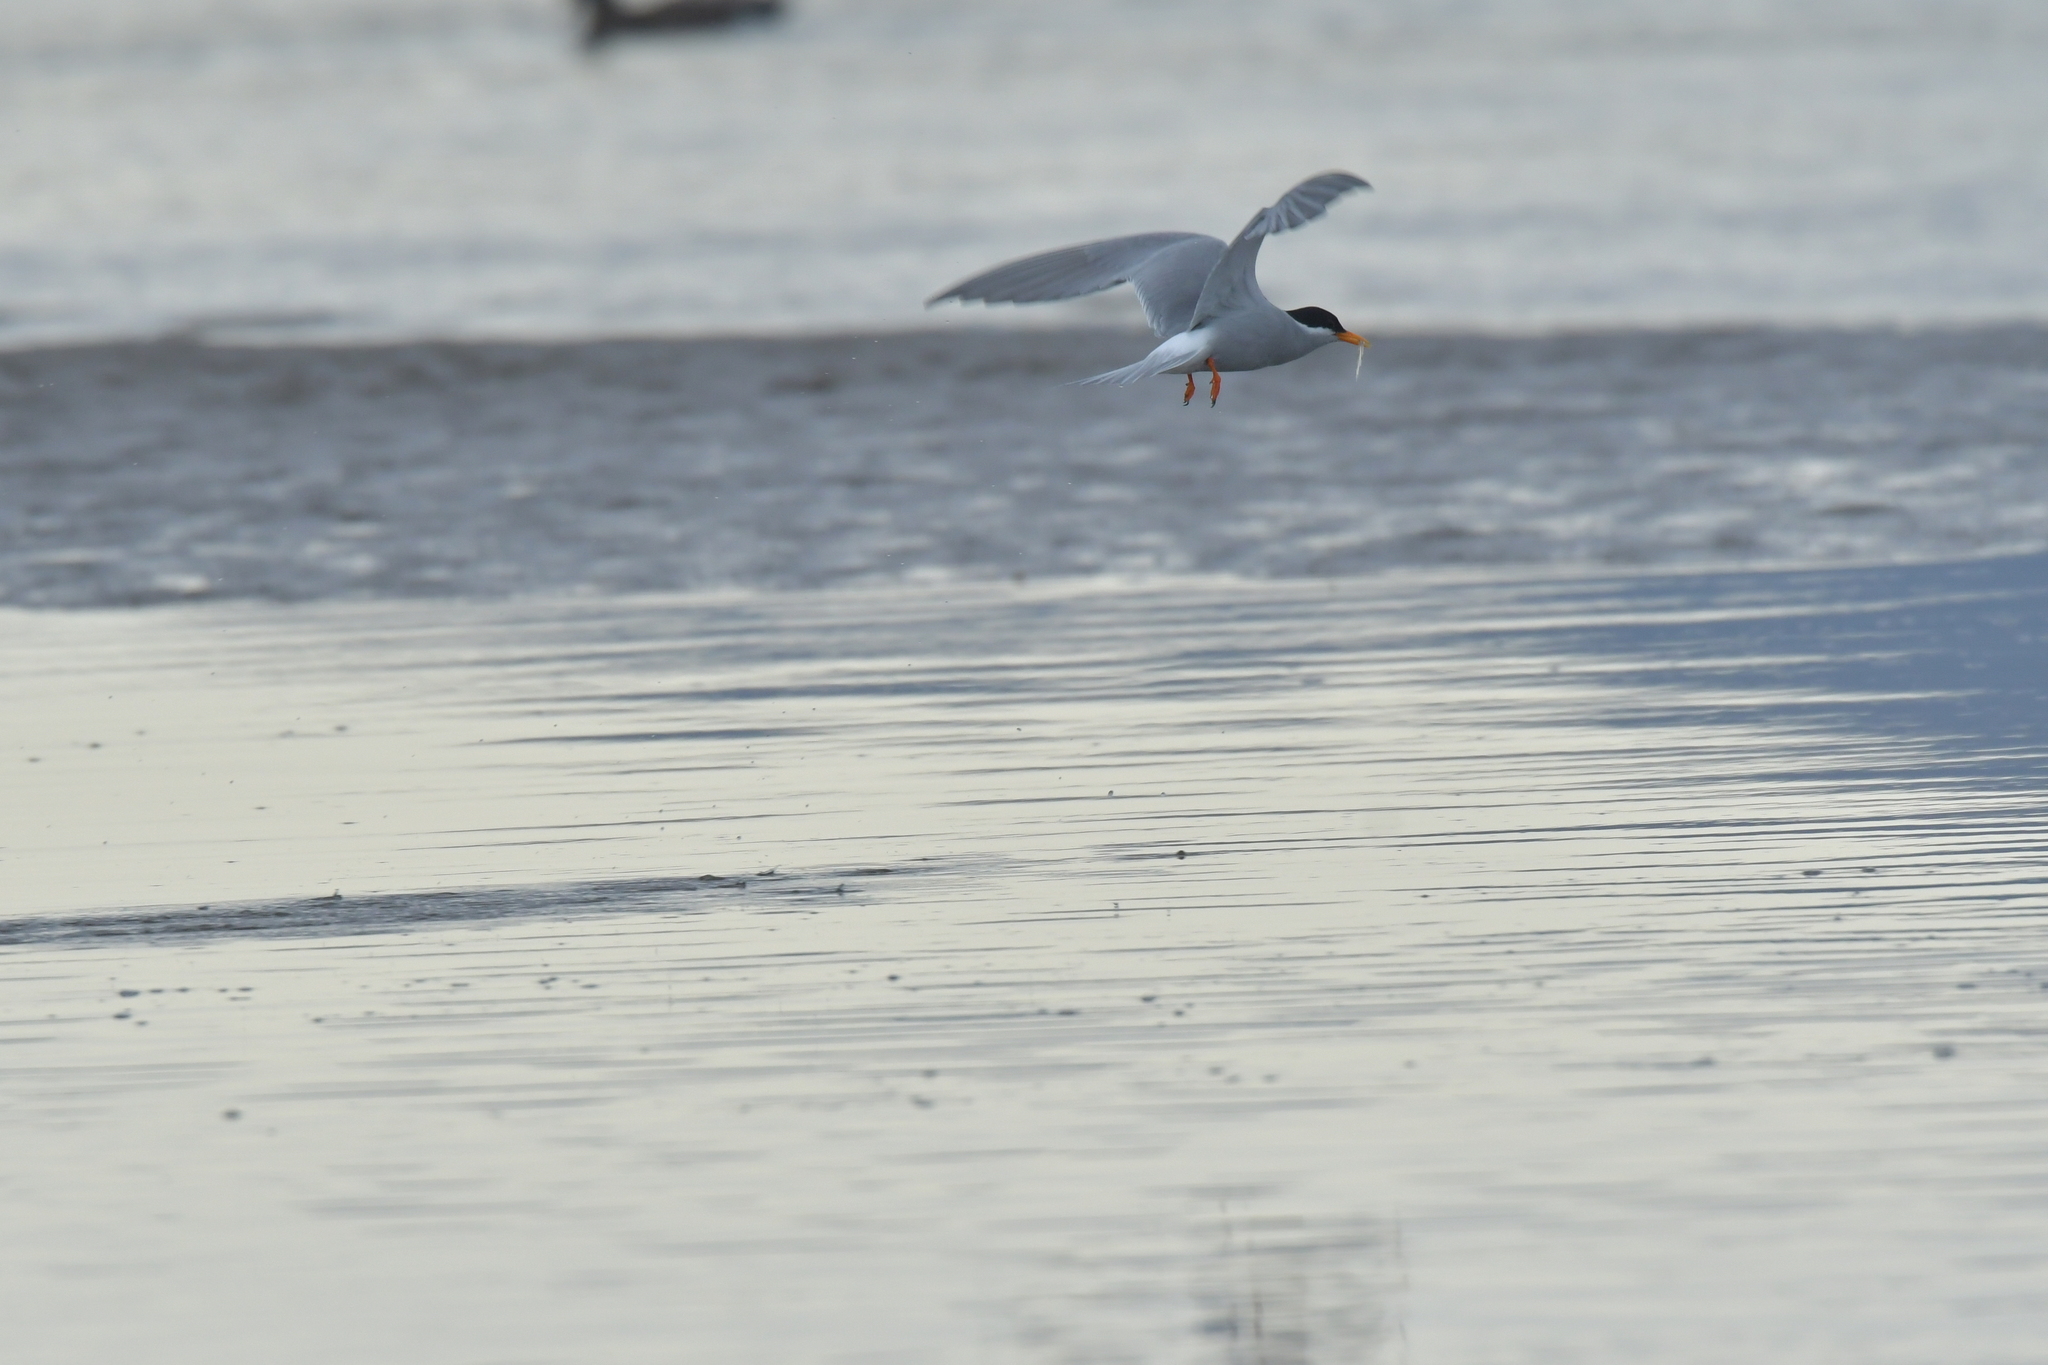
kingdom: Animalia
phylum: Chordata
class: Aves
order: Charadriiformes
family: Laridae
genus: Chlidonias
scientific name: Chlidonias albostriatus
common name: Black-fronted tern
